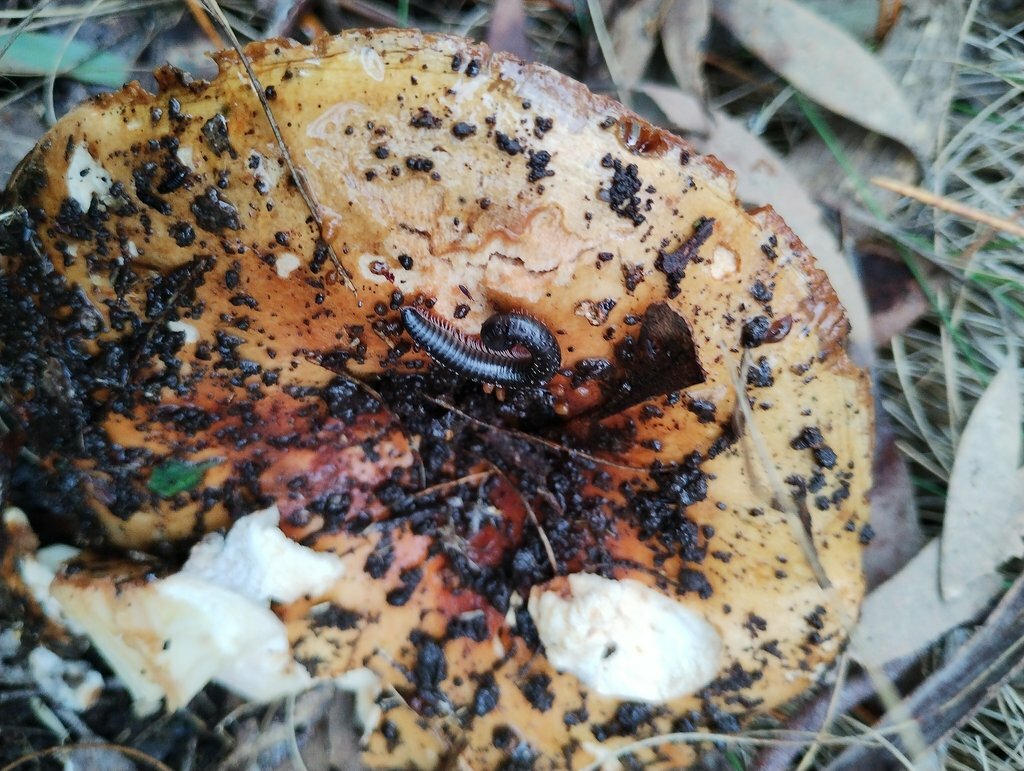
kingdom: Animalia
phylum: Arthropoda
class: Diplopoda
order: Julida
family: Julidae
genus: Ommatoiulus
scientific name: Ommatoiulus moreleti
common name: Portuguese millipede
